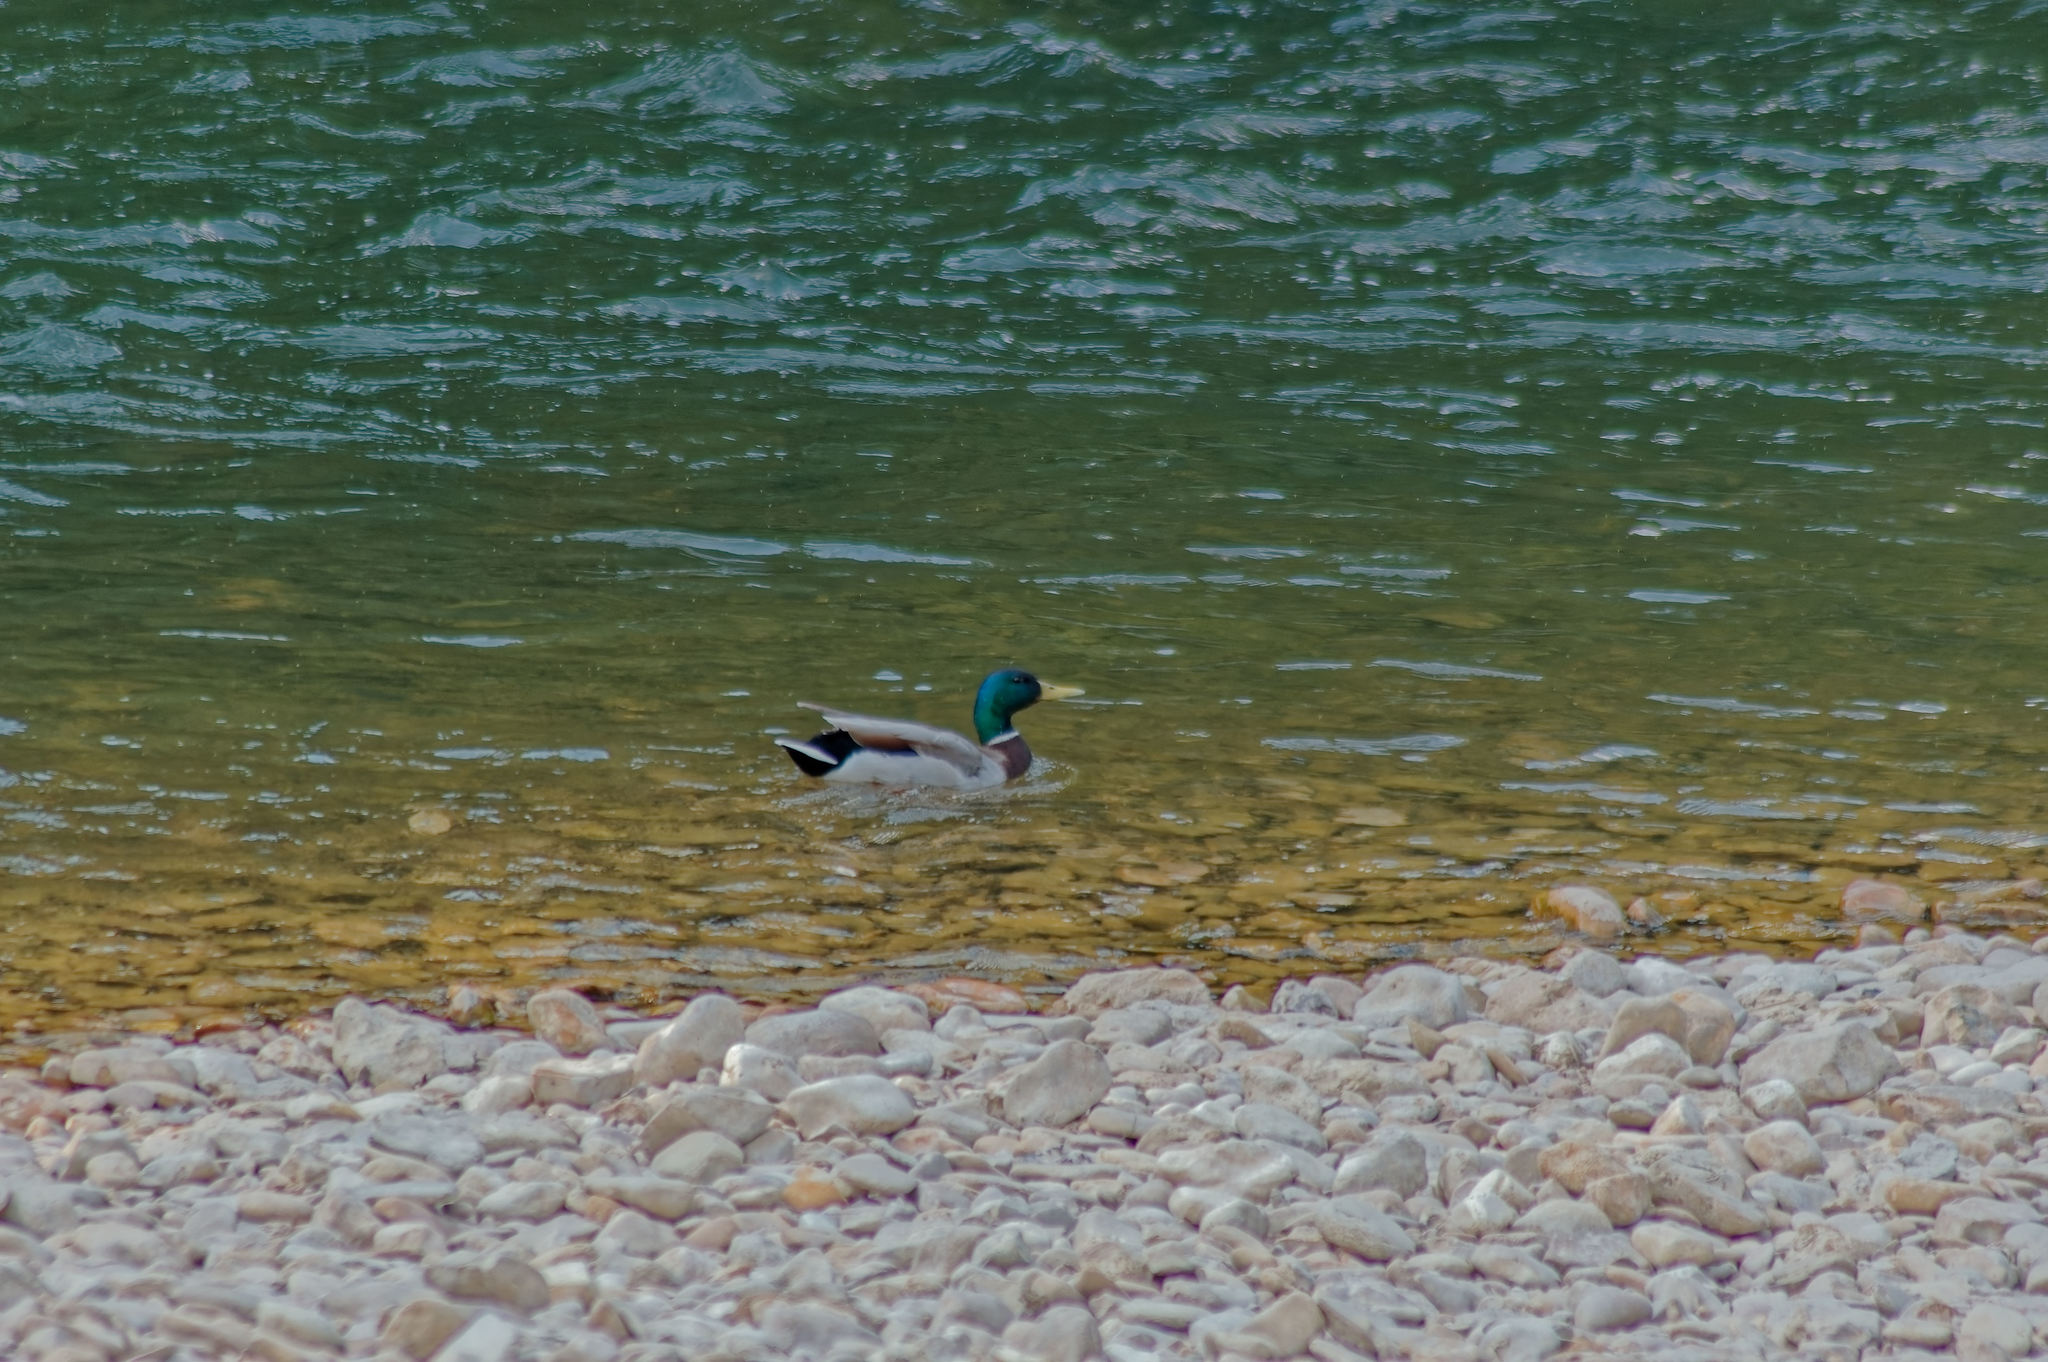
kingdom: Animalia
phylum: Chordata
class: Aves
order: Anseriformes
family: Anatidae
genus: Anas
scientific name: Anas platyrhynchos
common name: Mallard
